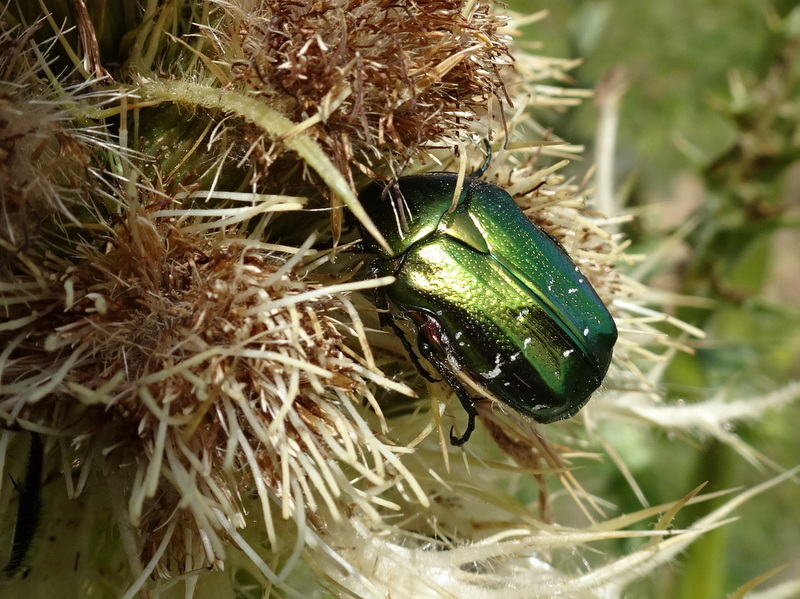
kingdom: Animalia
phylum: Arthropoda
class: Insecta
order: Coleoptera
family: Scarabaeidae
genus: Cetonia
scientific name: Cetonia aurata
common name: Rose chafer
